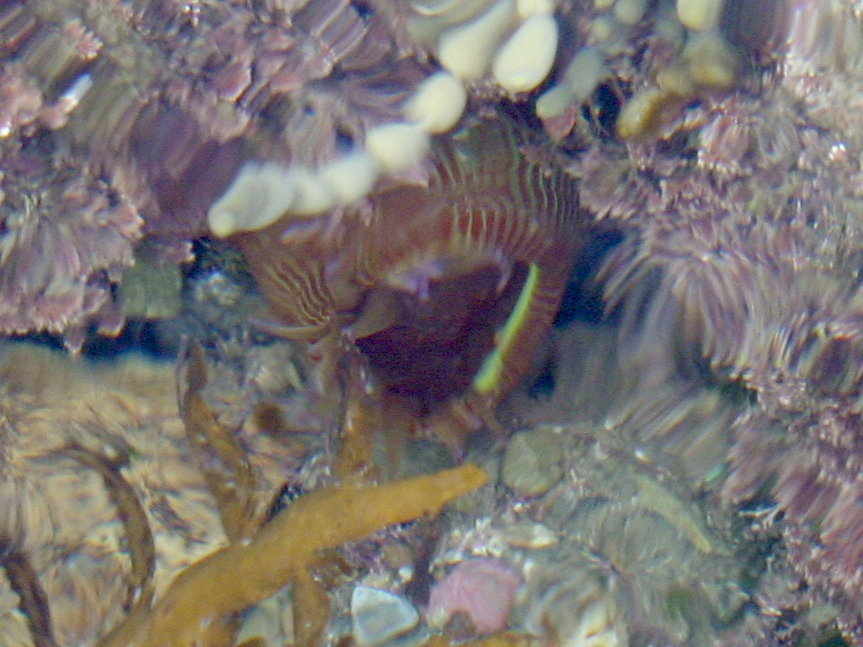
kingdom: Animalia
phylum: Cnidaria
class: Anthozoa
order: Actiniaria
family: Actiniidae
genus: Epiactis
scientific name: Epiactis thompsoni
